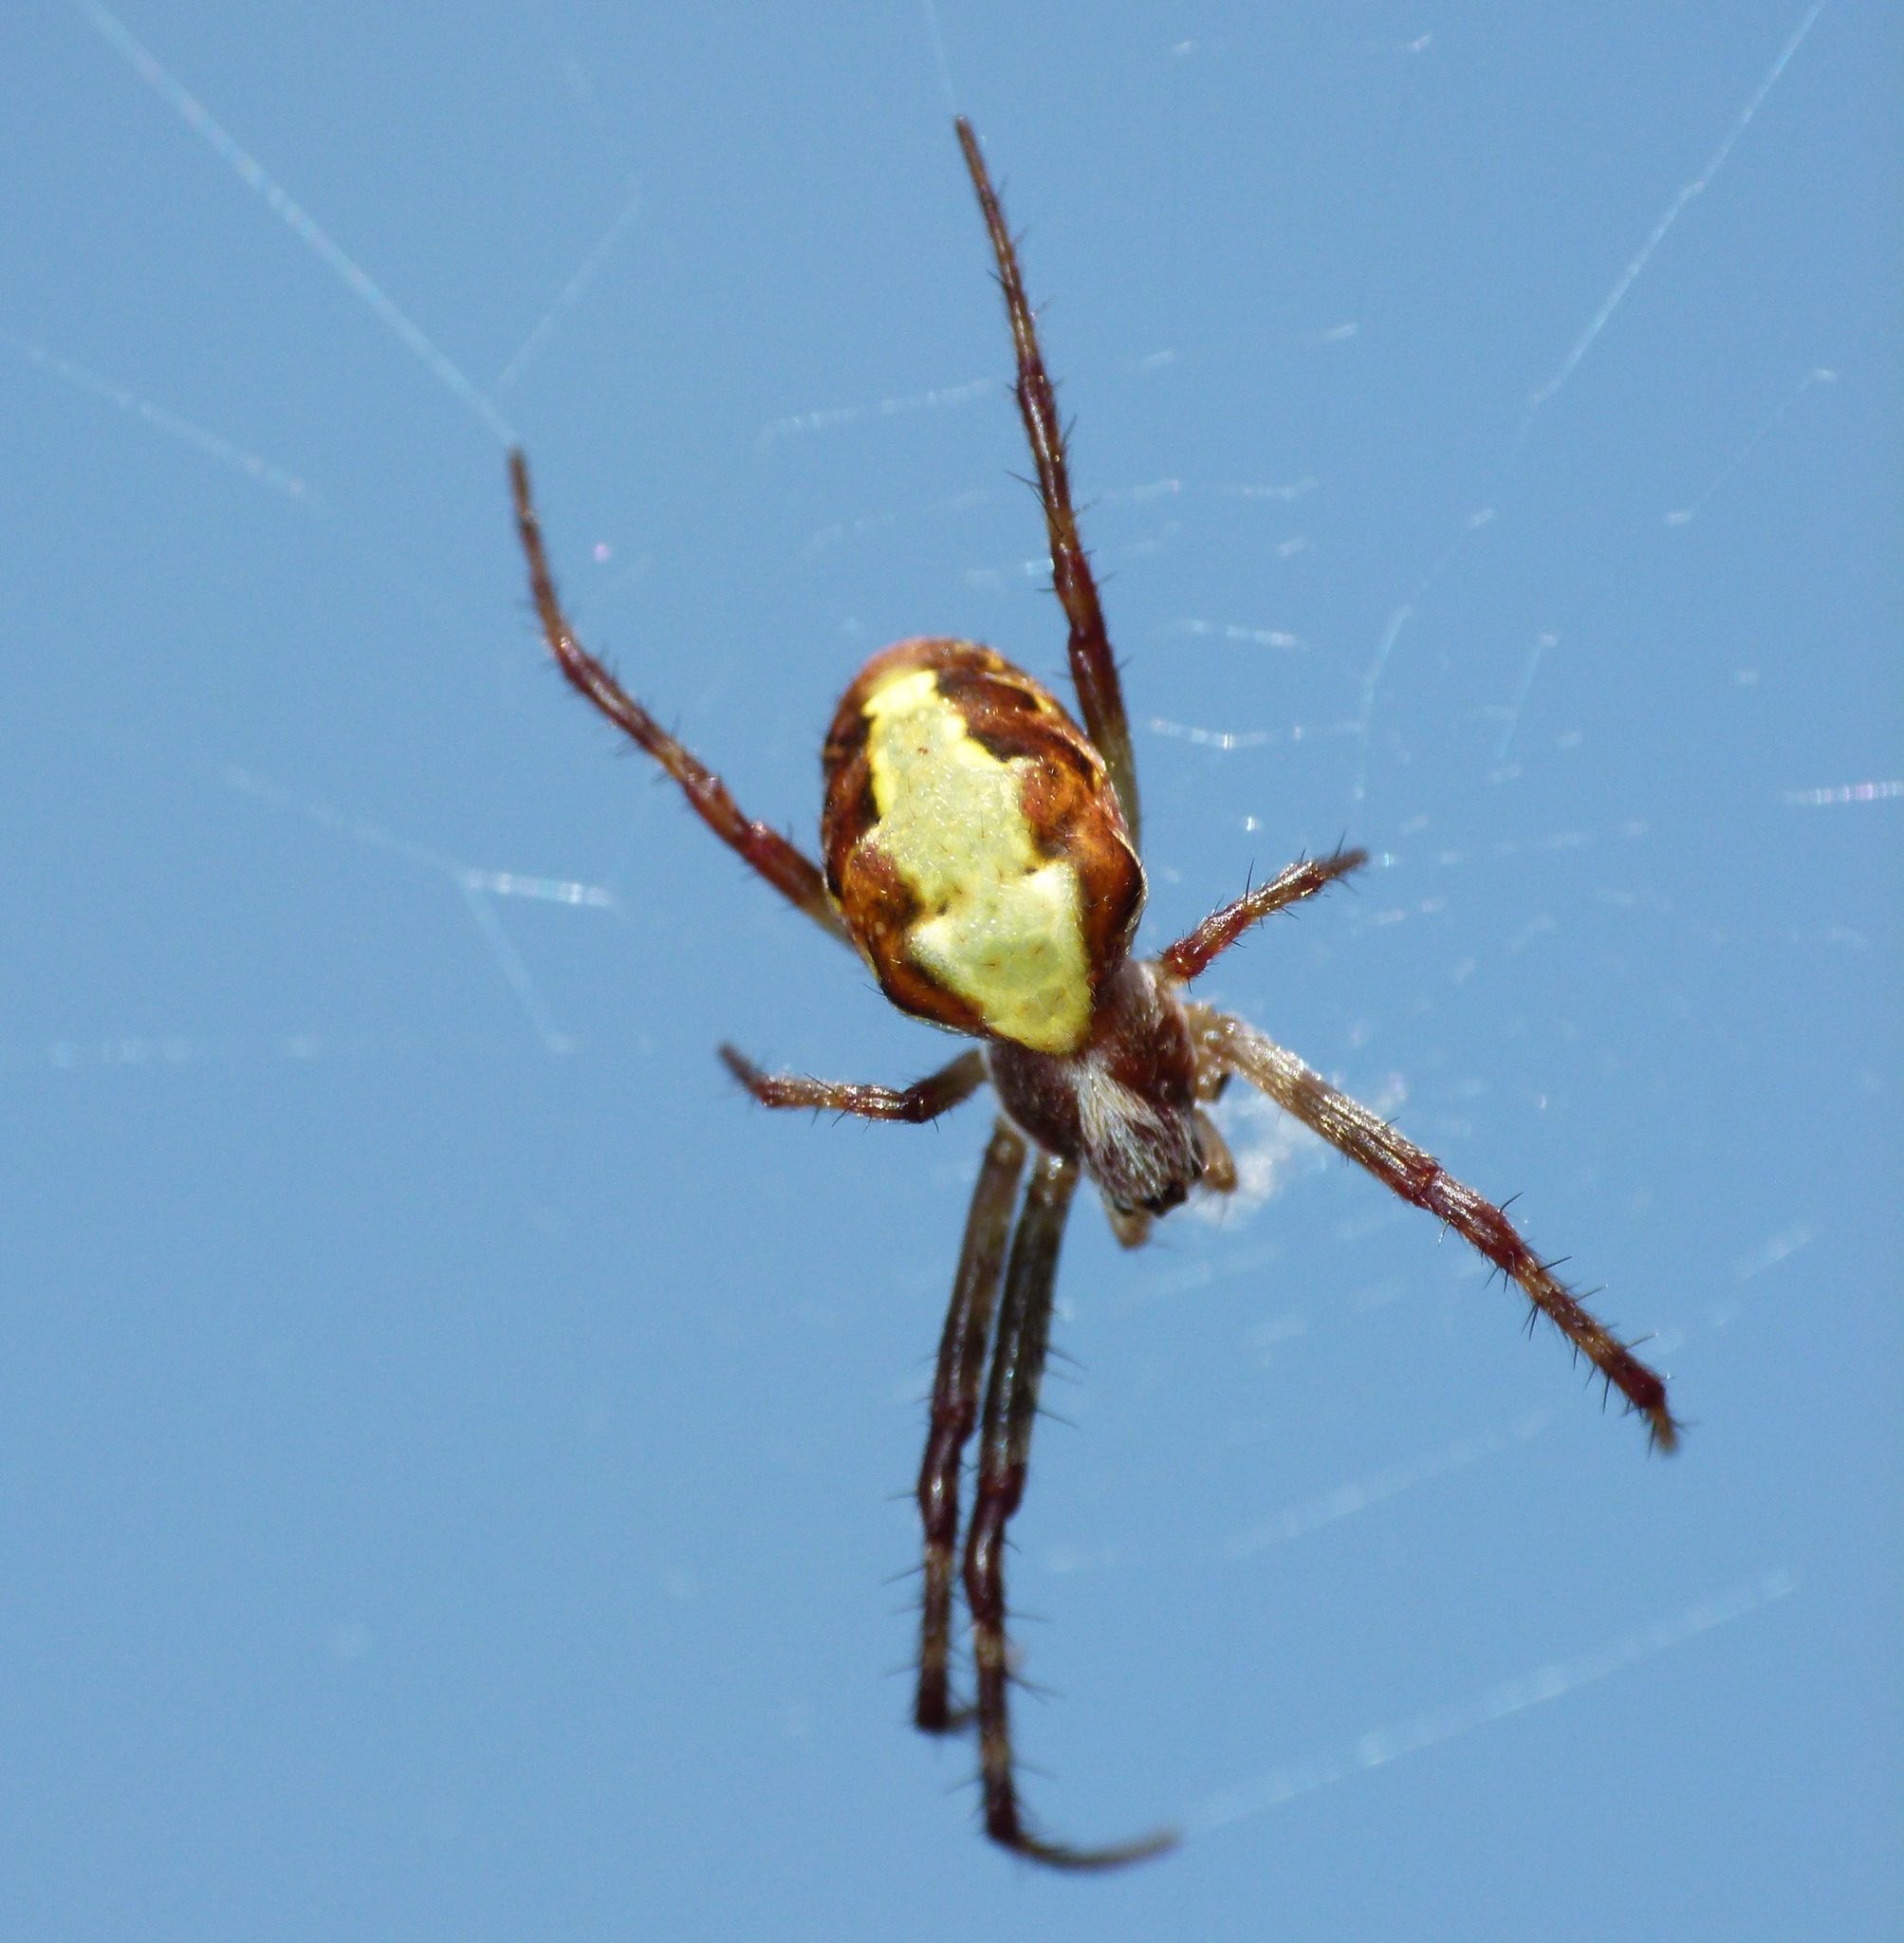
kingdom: Animalia
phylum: Arthropoda
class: Arachnida
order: Araneae
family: Araneidae
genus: Novaranea
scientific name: Novaranea queribunda
